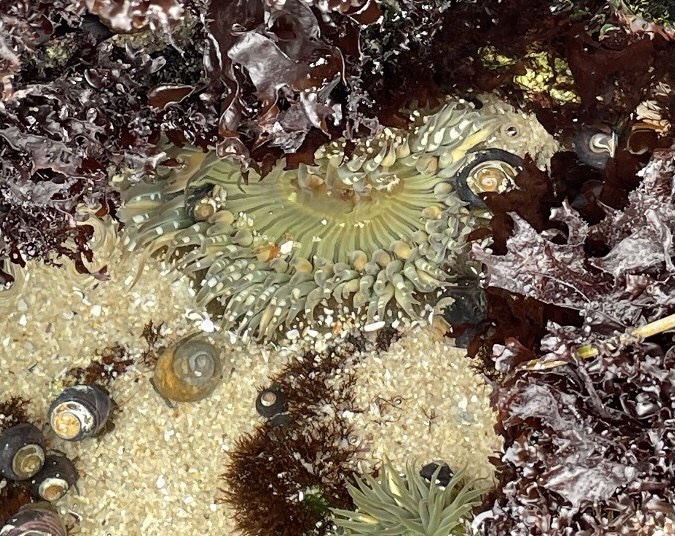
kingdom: Animalia
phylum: Cnidaria
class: Anthozoa
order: Actiniaria
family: Actiniidae
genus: Anthopleura
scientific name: Anthopleura sola
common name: Sun anemone
